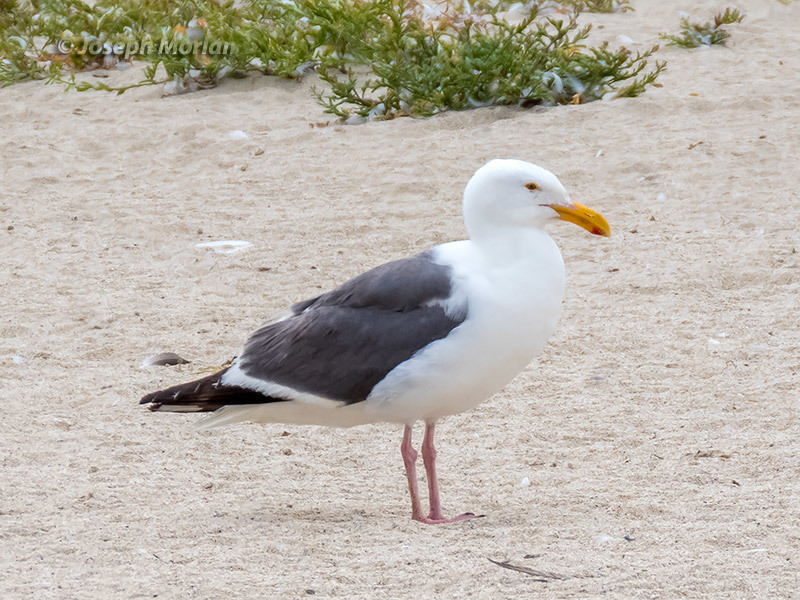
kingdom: Animalia
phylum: Chordata
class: Aves
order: Charadriiformes
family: Laridae
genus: Larus
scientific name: Larus occidentalis
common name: Western gull
